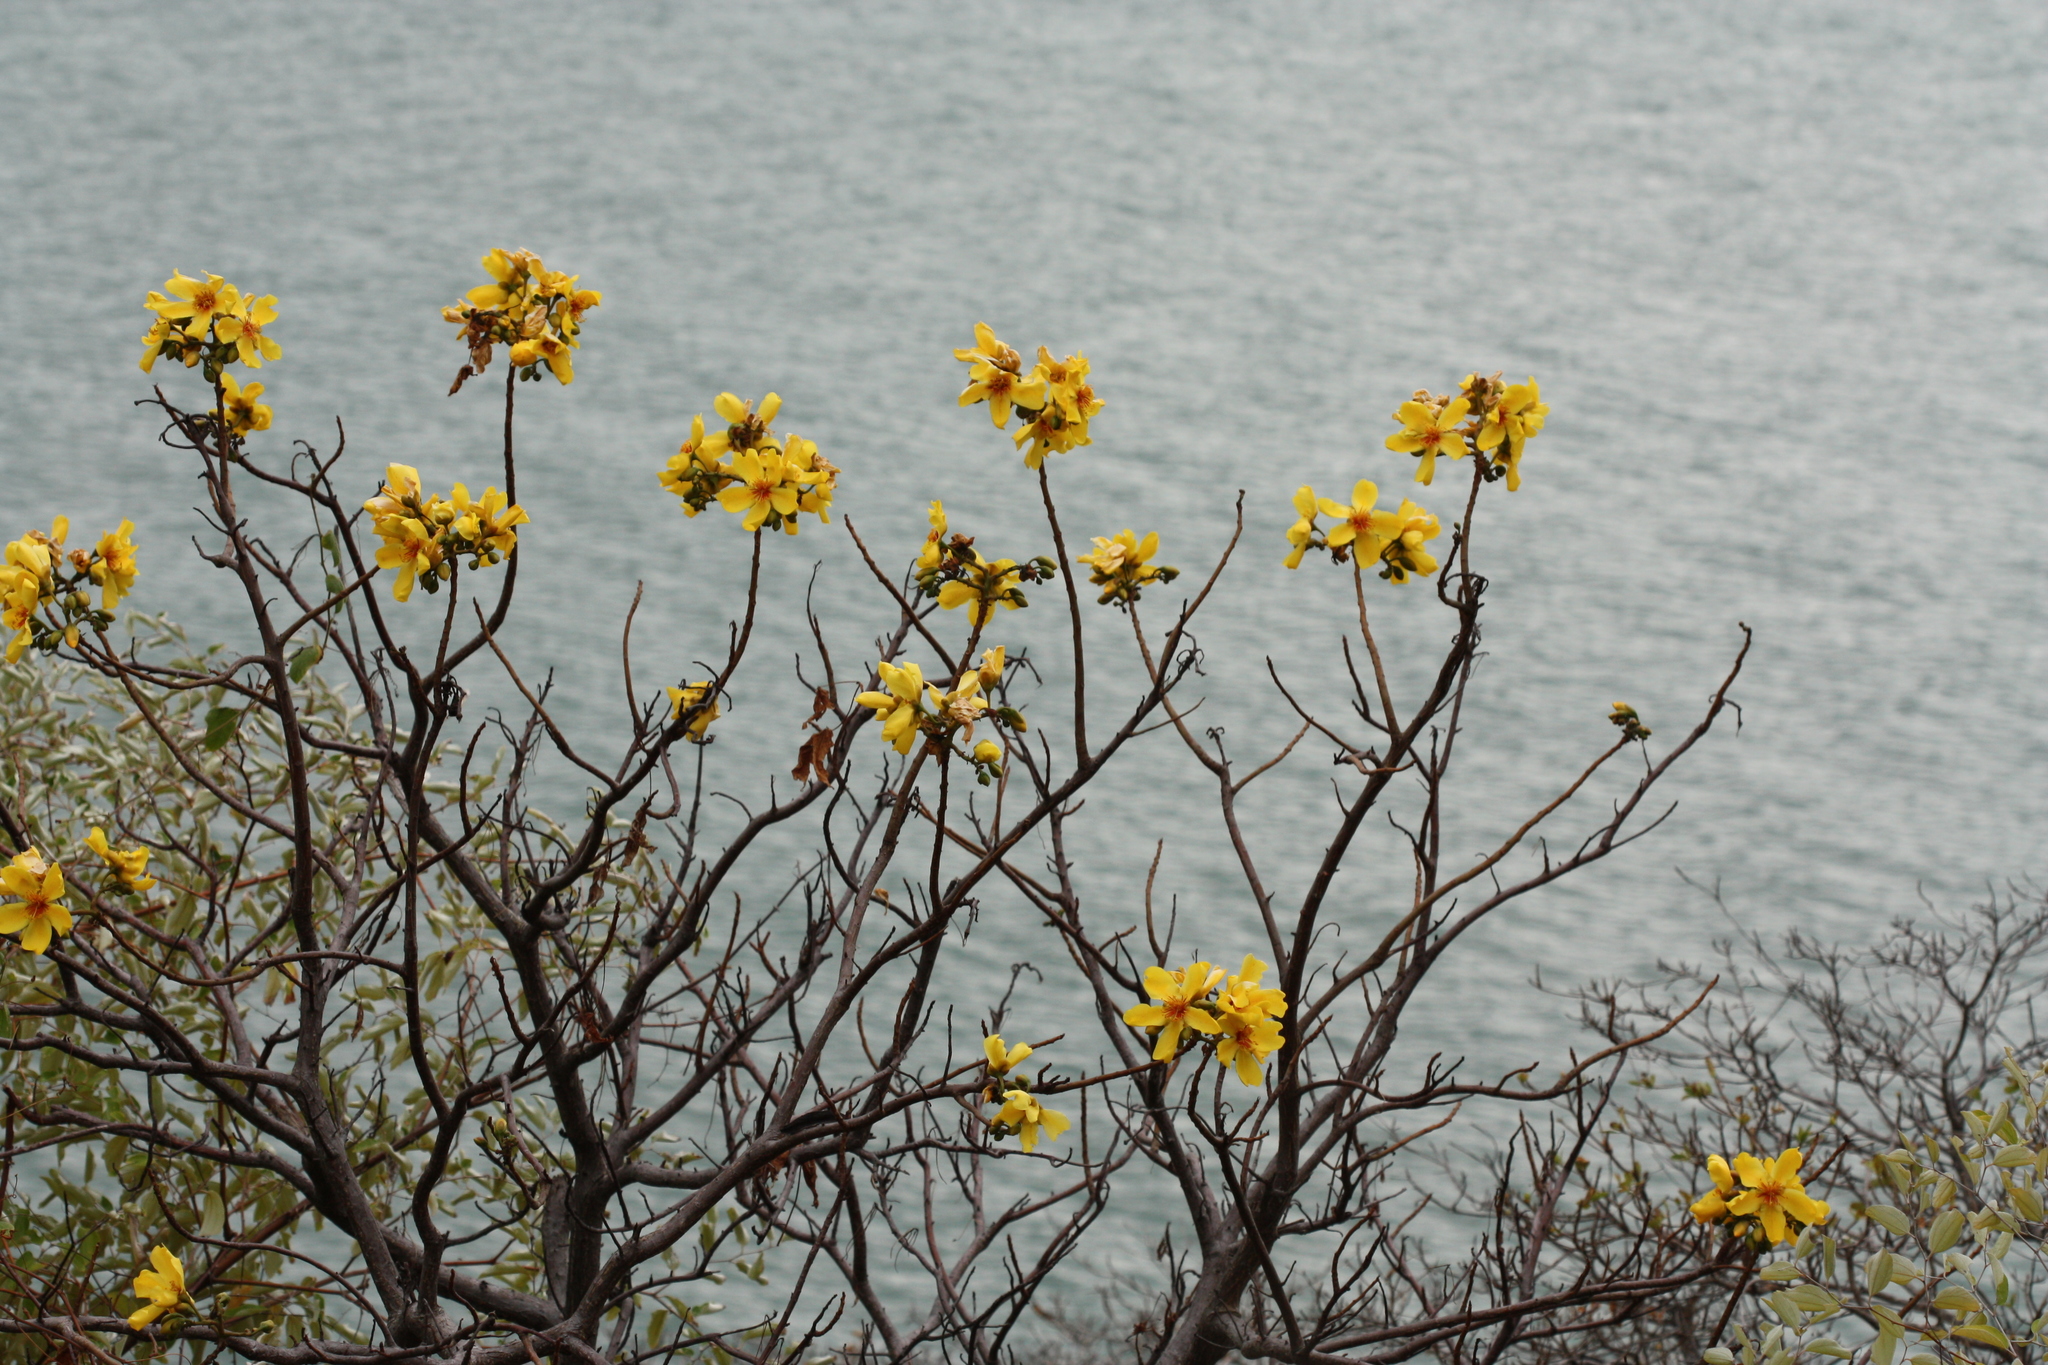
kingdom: Plantae
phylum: Tracheophyta
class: Magnoliopsida
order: Malvales
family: Cochlospermaceae
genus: Cochlospermum
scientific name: Cochlospermum gillivraei
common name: Cottontree
